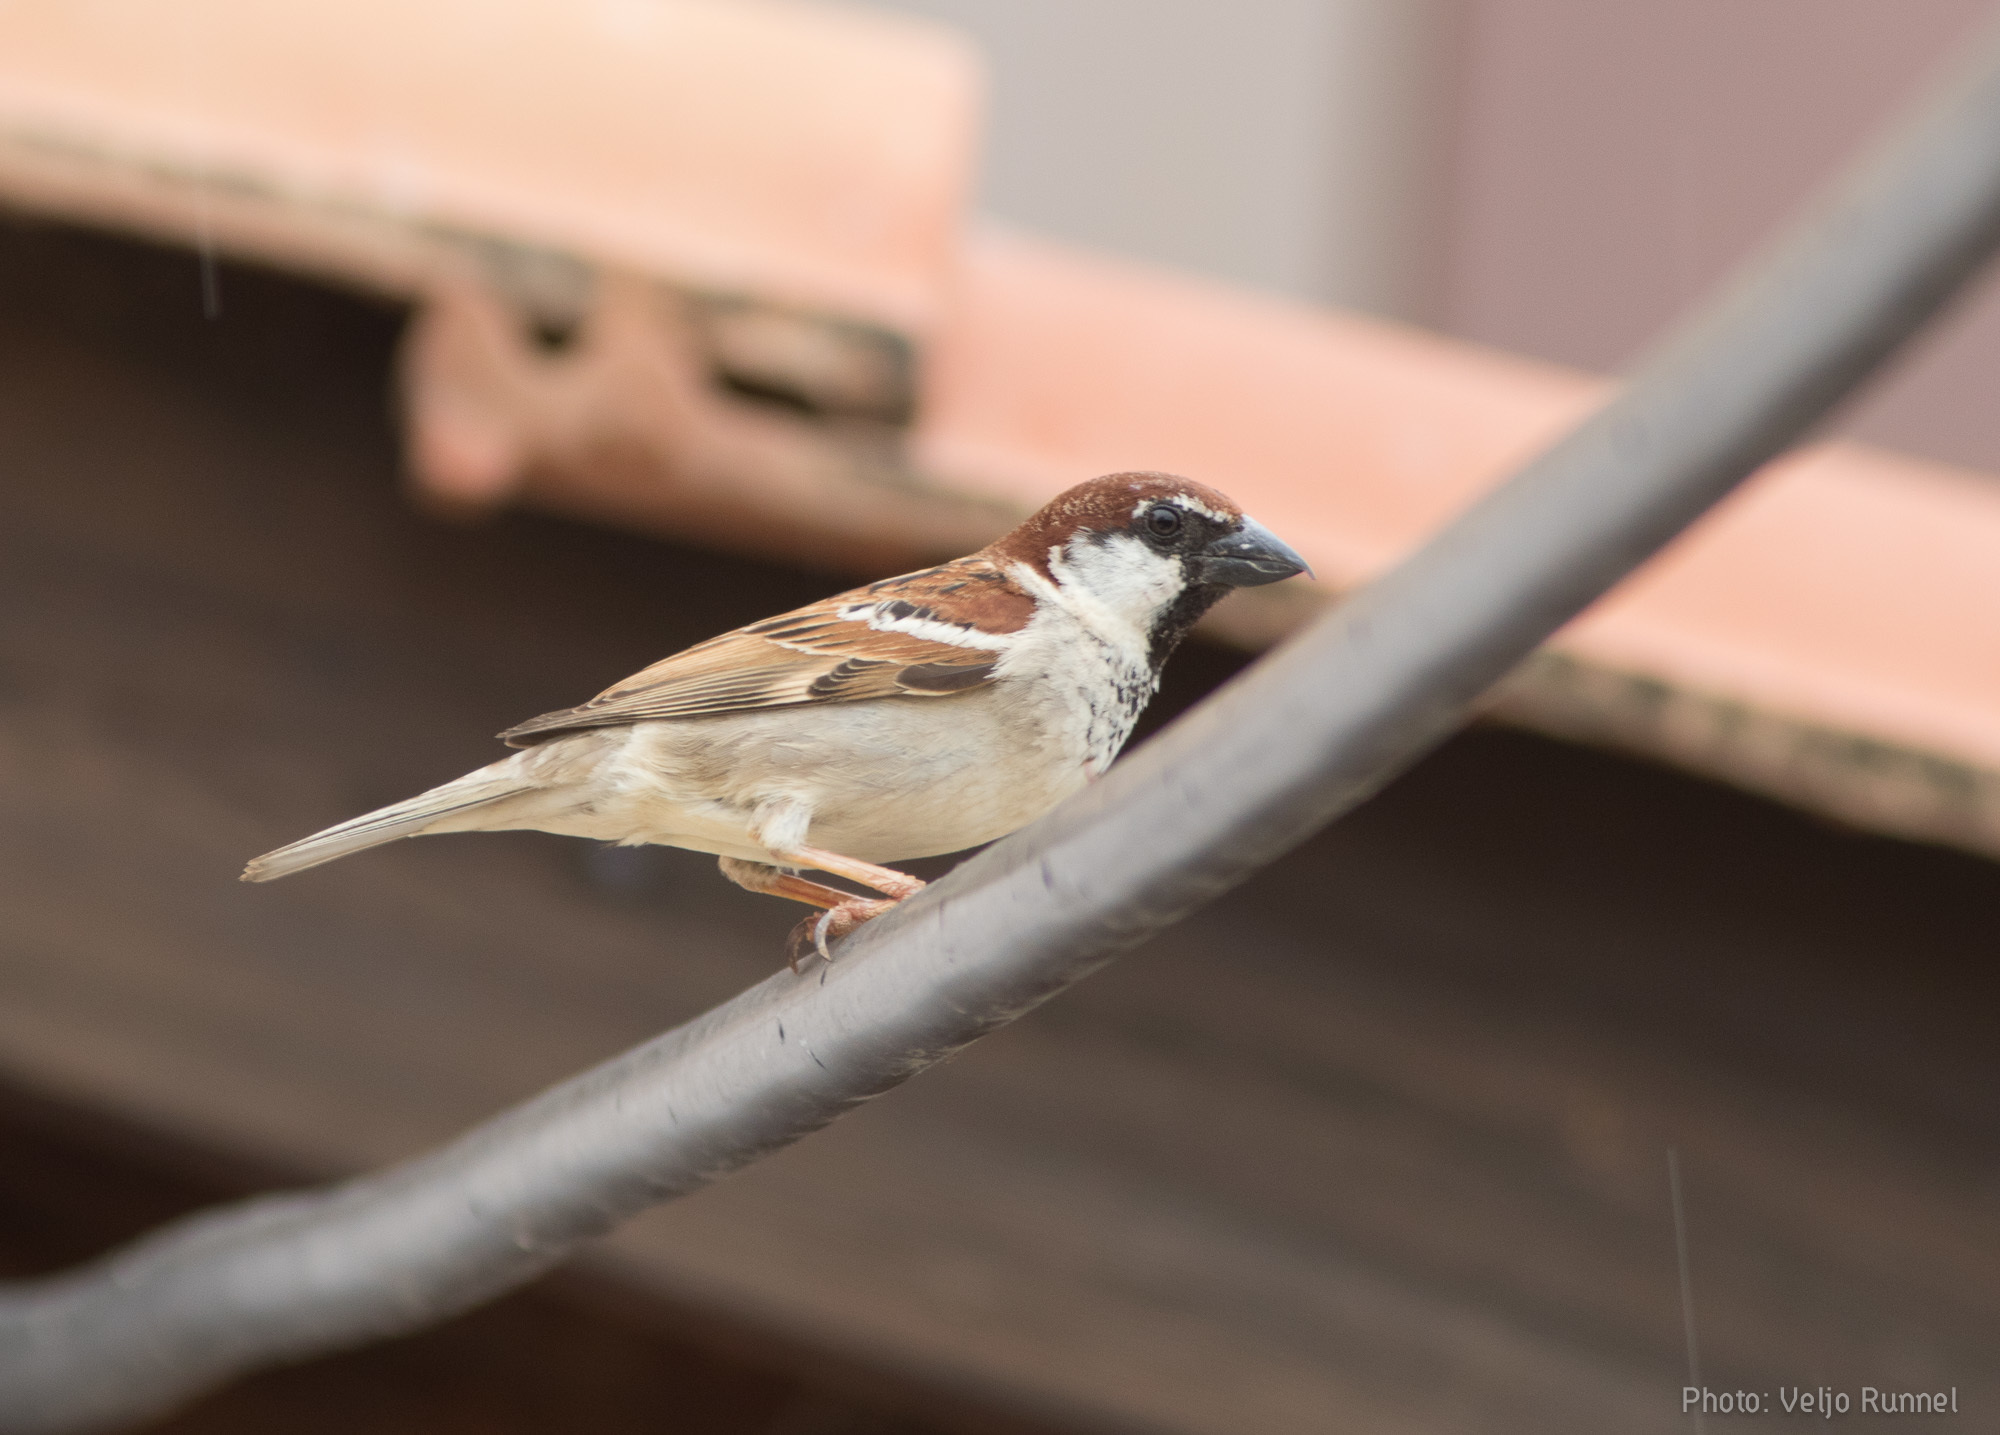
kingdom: Animalia
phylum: Chordata
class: Aves
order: Passeriformes
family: Passeridae
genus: Passer
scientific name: Passer italiae
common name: Italian sparrow
